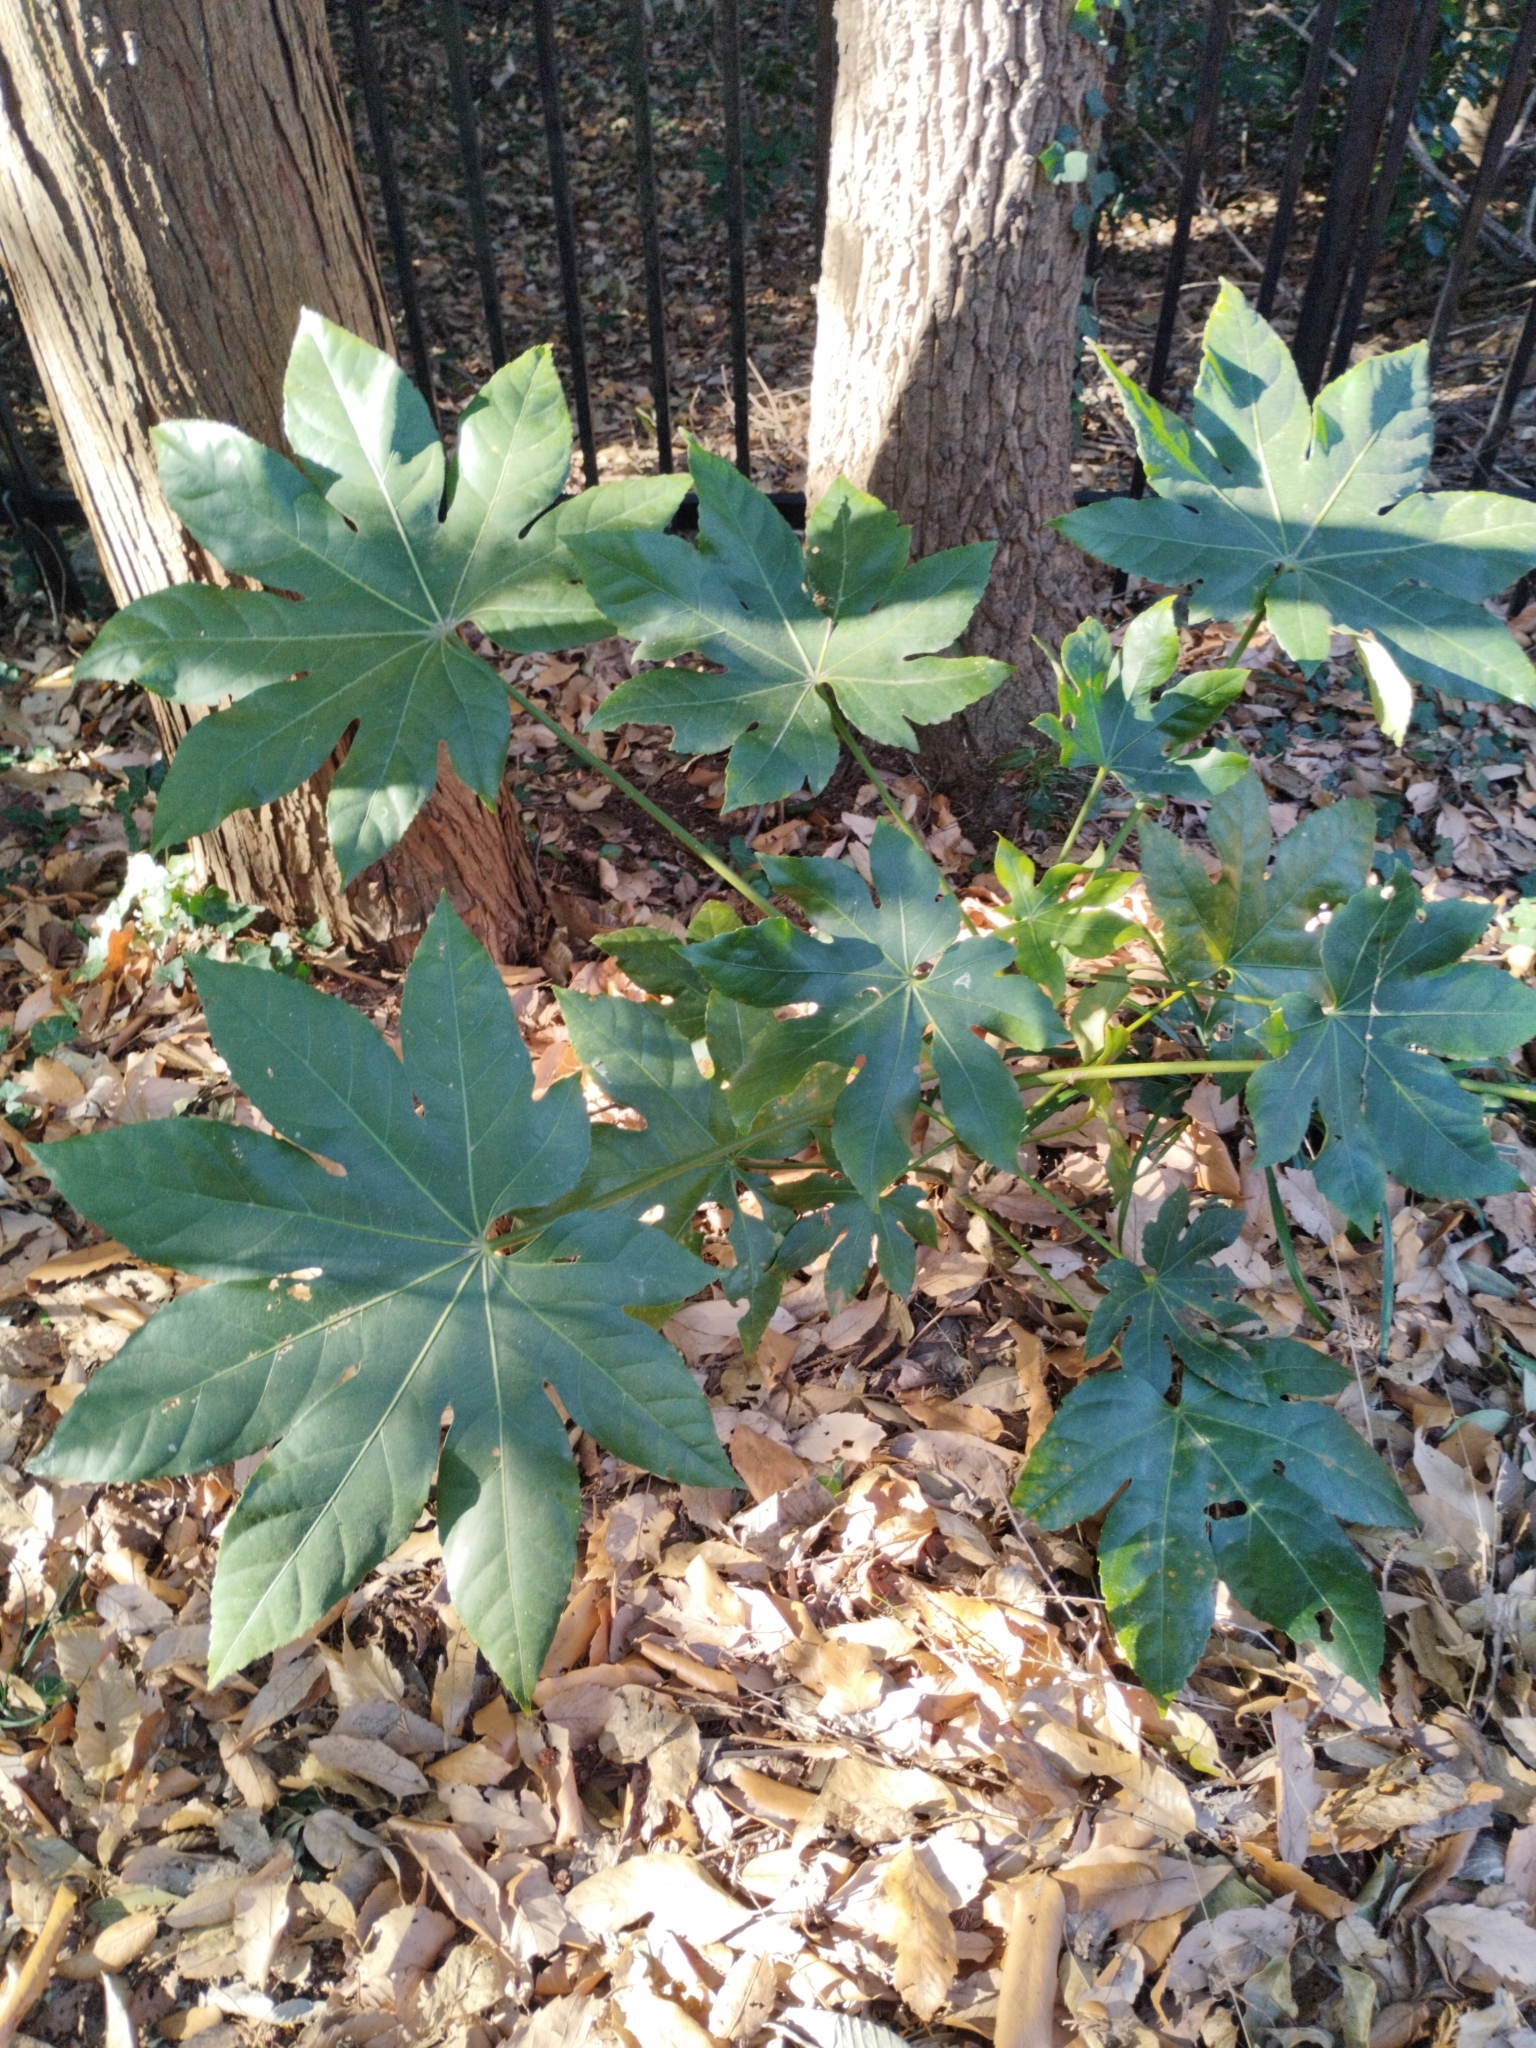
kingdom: Plantae
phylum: Tracheophyta
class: Magnoliopsida
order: Apiales
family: Araliaceae
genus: Fatsia
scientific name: Fatsia japonica
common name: Fatsia
